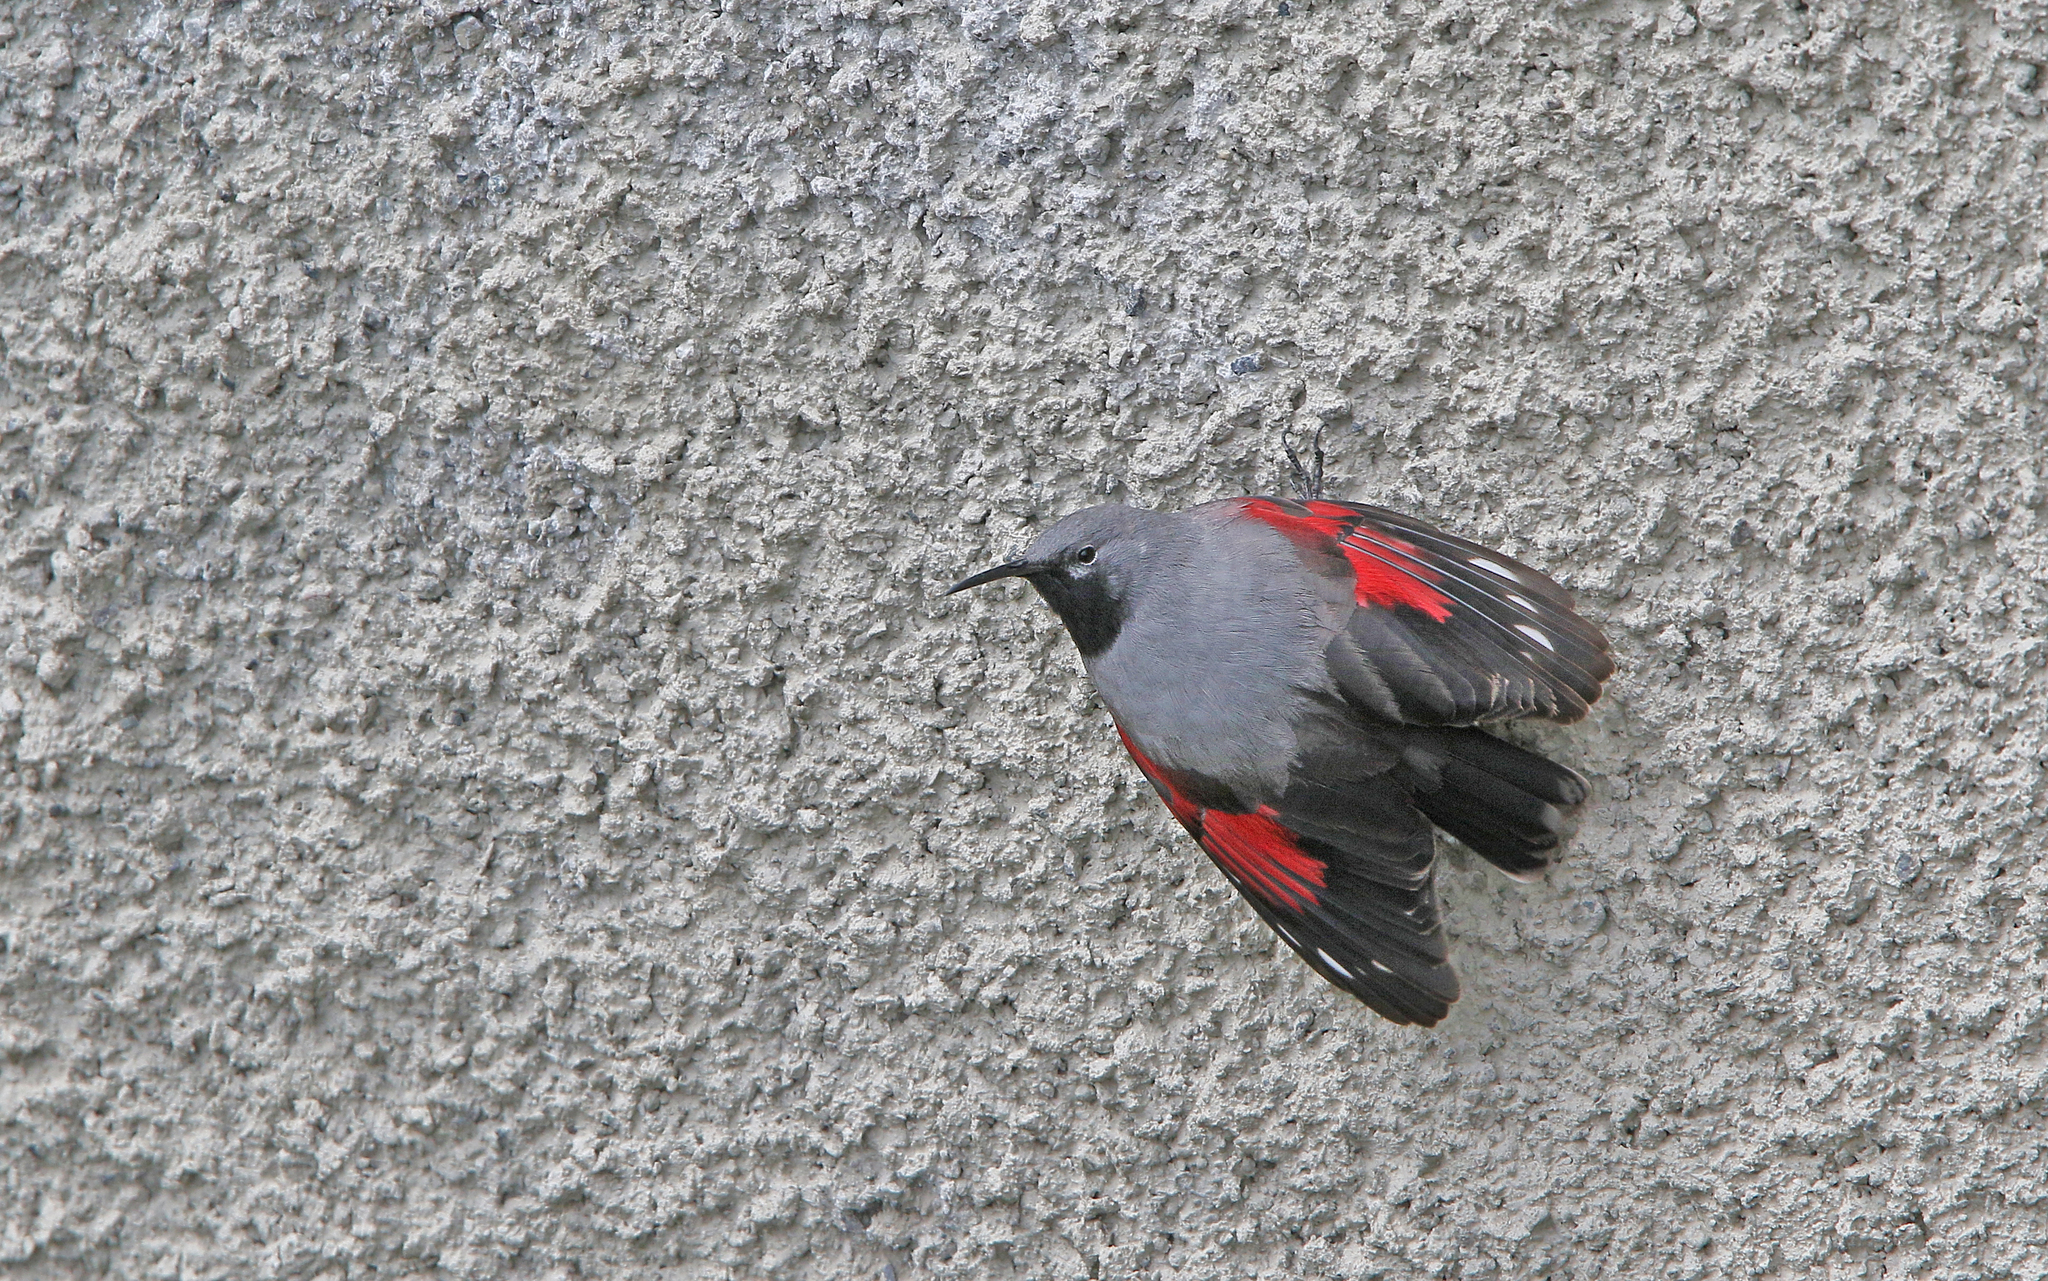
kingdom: Animalia
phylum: Chordata
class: Aves
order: Passeriformes
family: Tichodromidae
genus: Tichodroma
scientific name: Tichodroma muraria
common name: Wallcreeper
